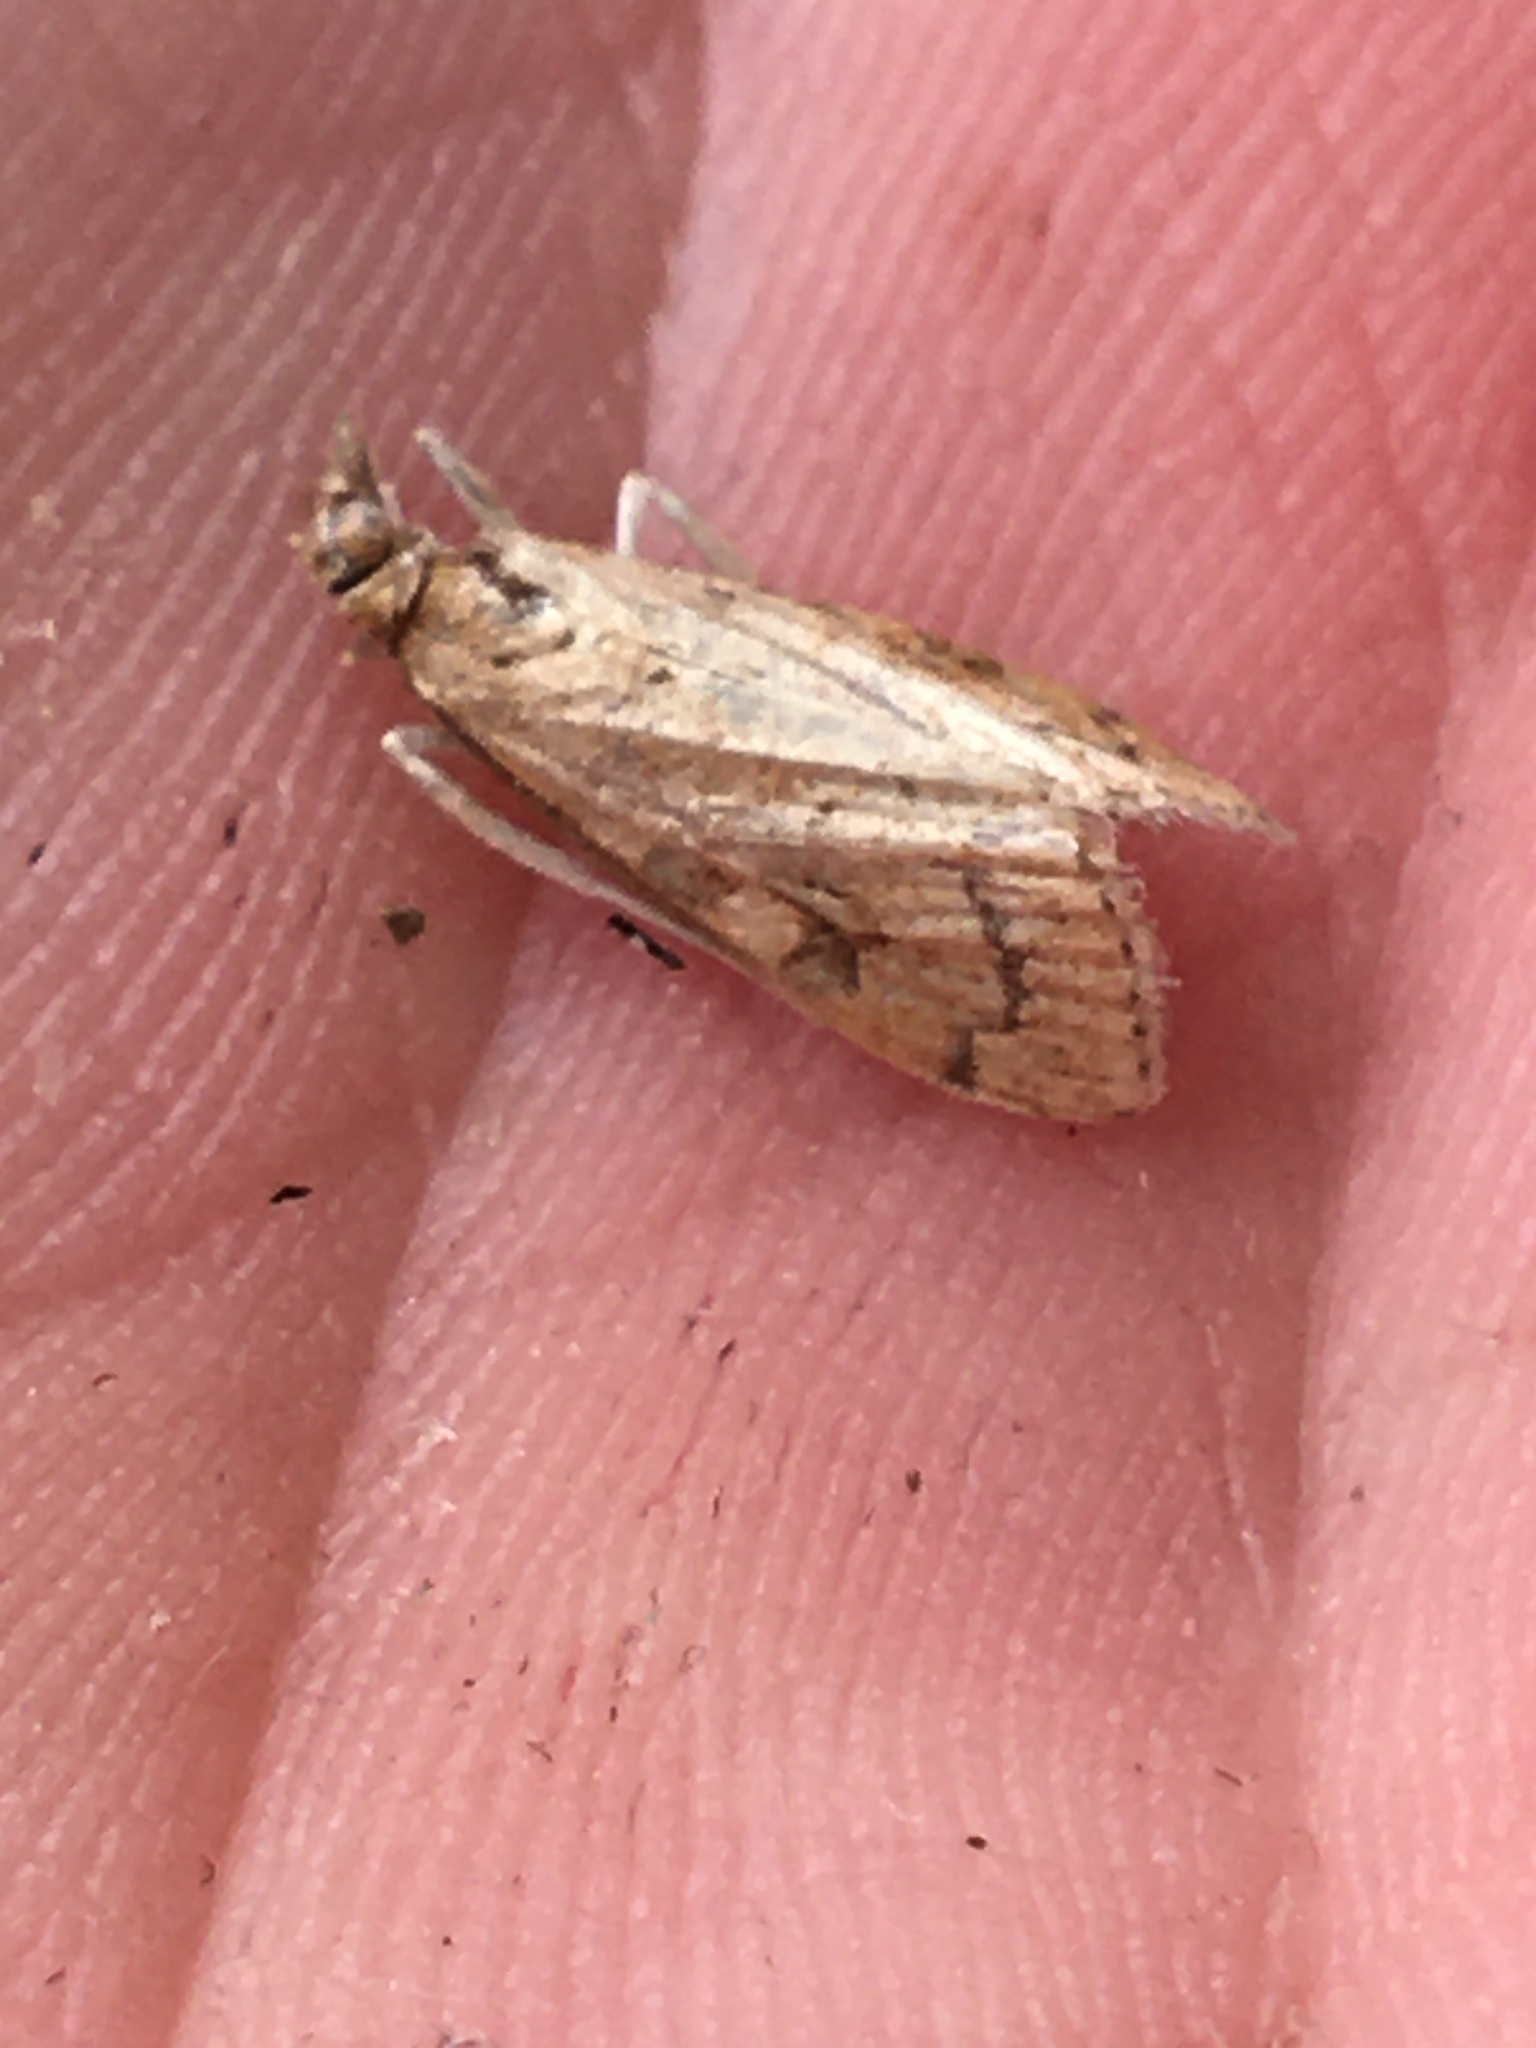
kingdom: Animalia
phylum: Arthropoda
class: Insecta
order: Lepidoptera
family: Crambidae
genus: Udea
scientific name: Udea rubigalis
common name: Celery leaftier moth
